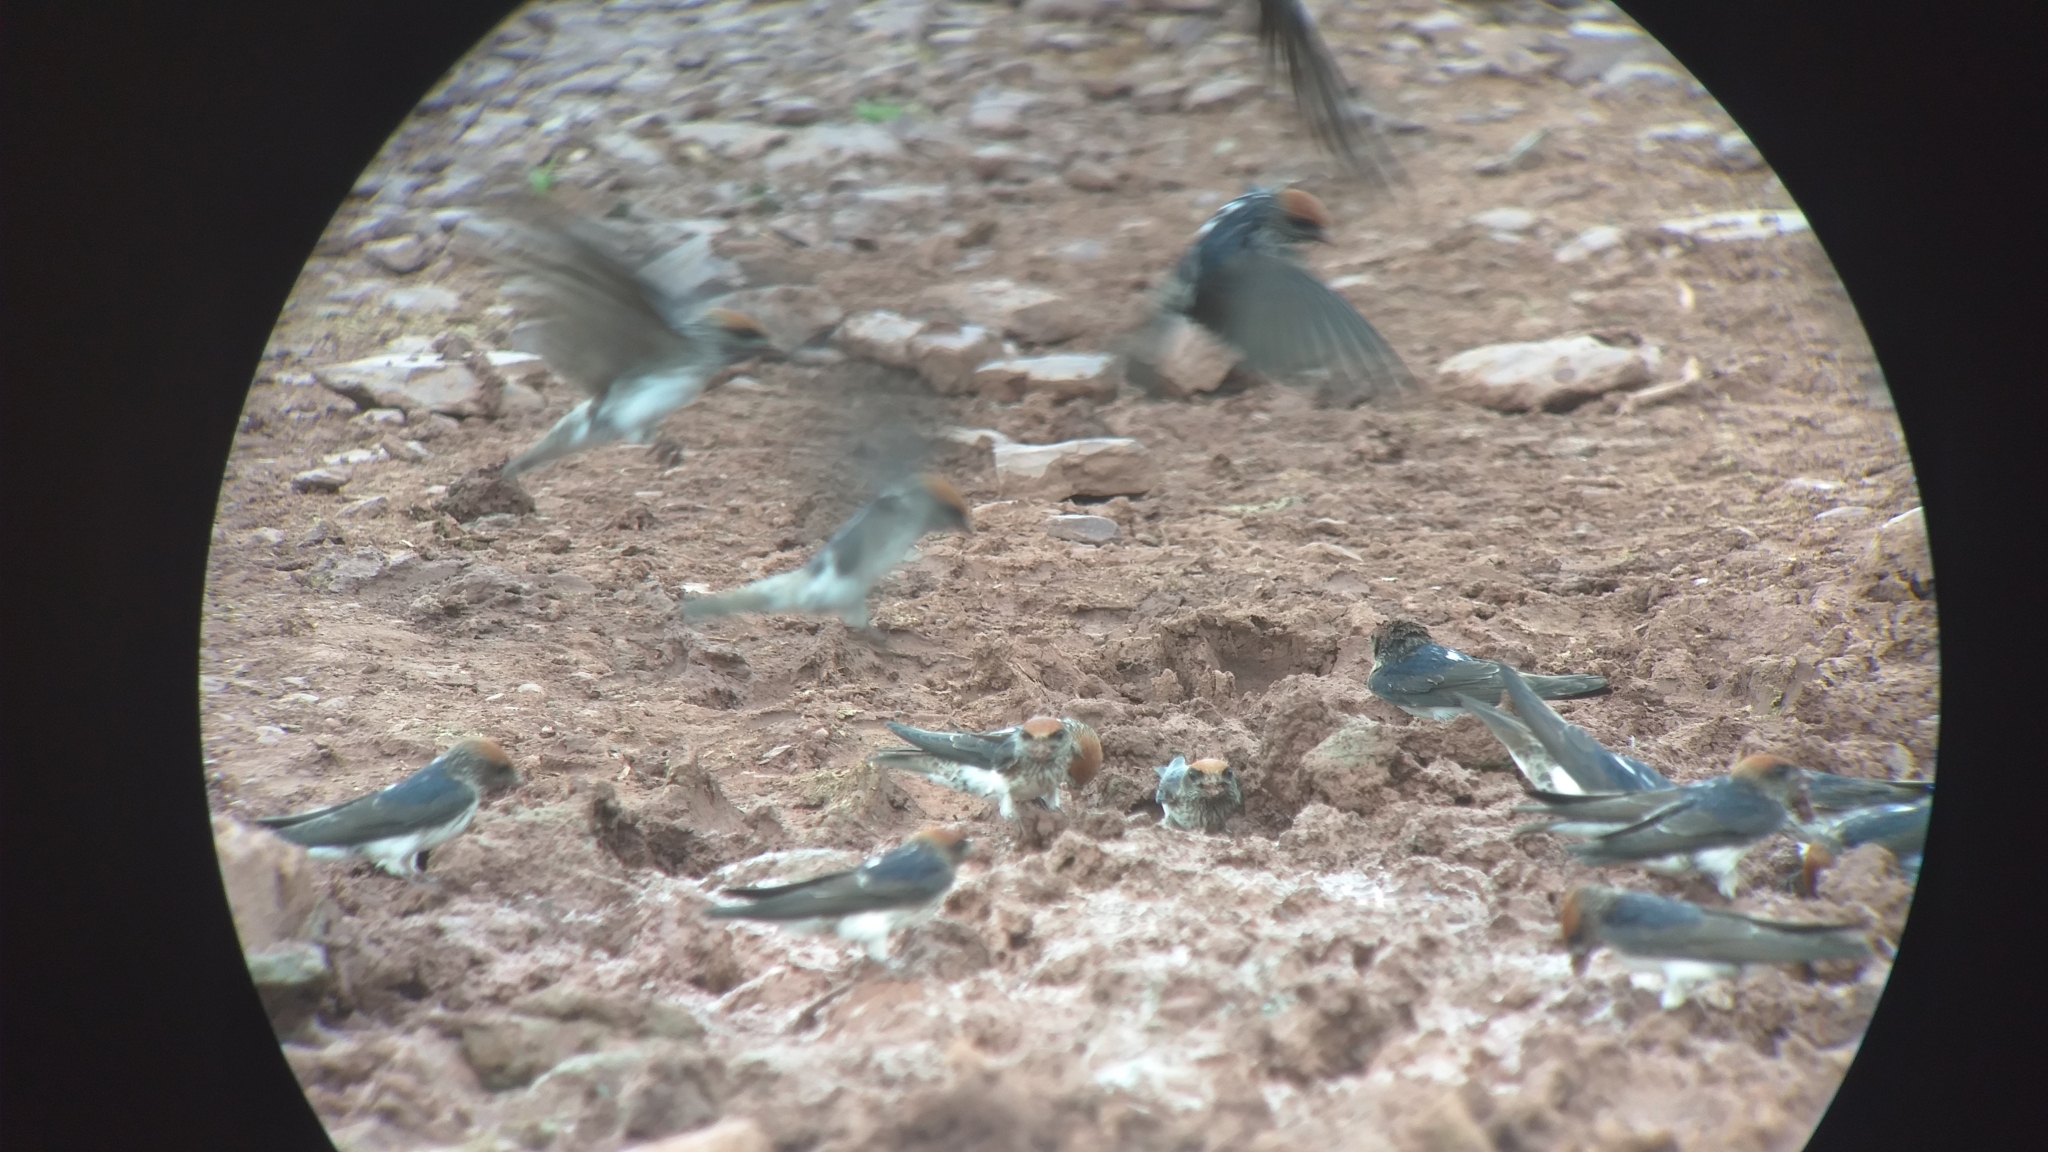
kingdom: Animalia
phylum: Chordata
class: Aves
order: Passeriformes
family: Hirundinidae
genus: Petrochelidon
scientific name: Petrochelidon fluvicola
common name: Streak-throated swallow
